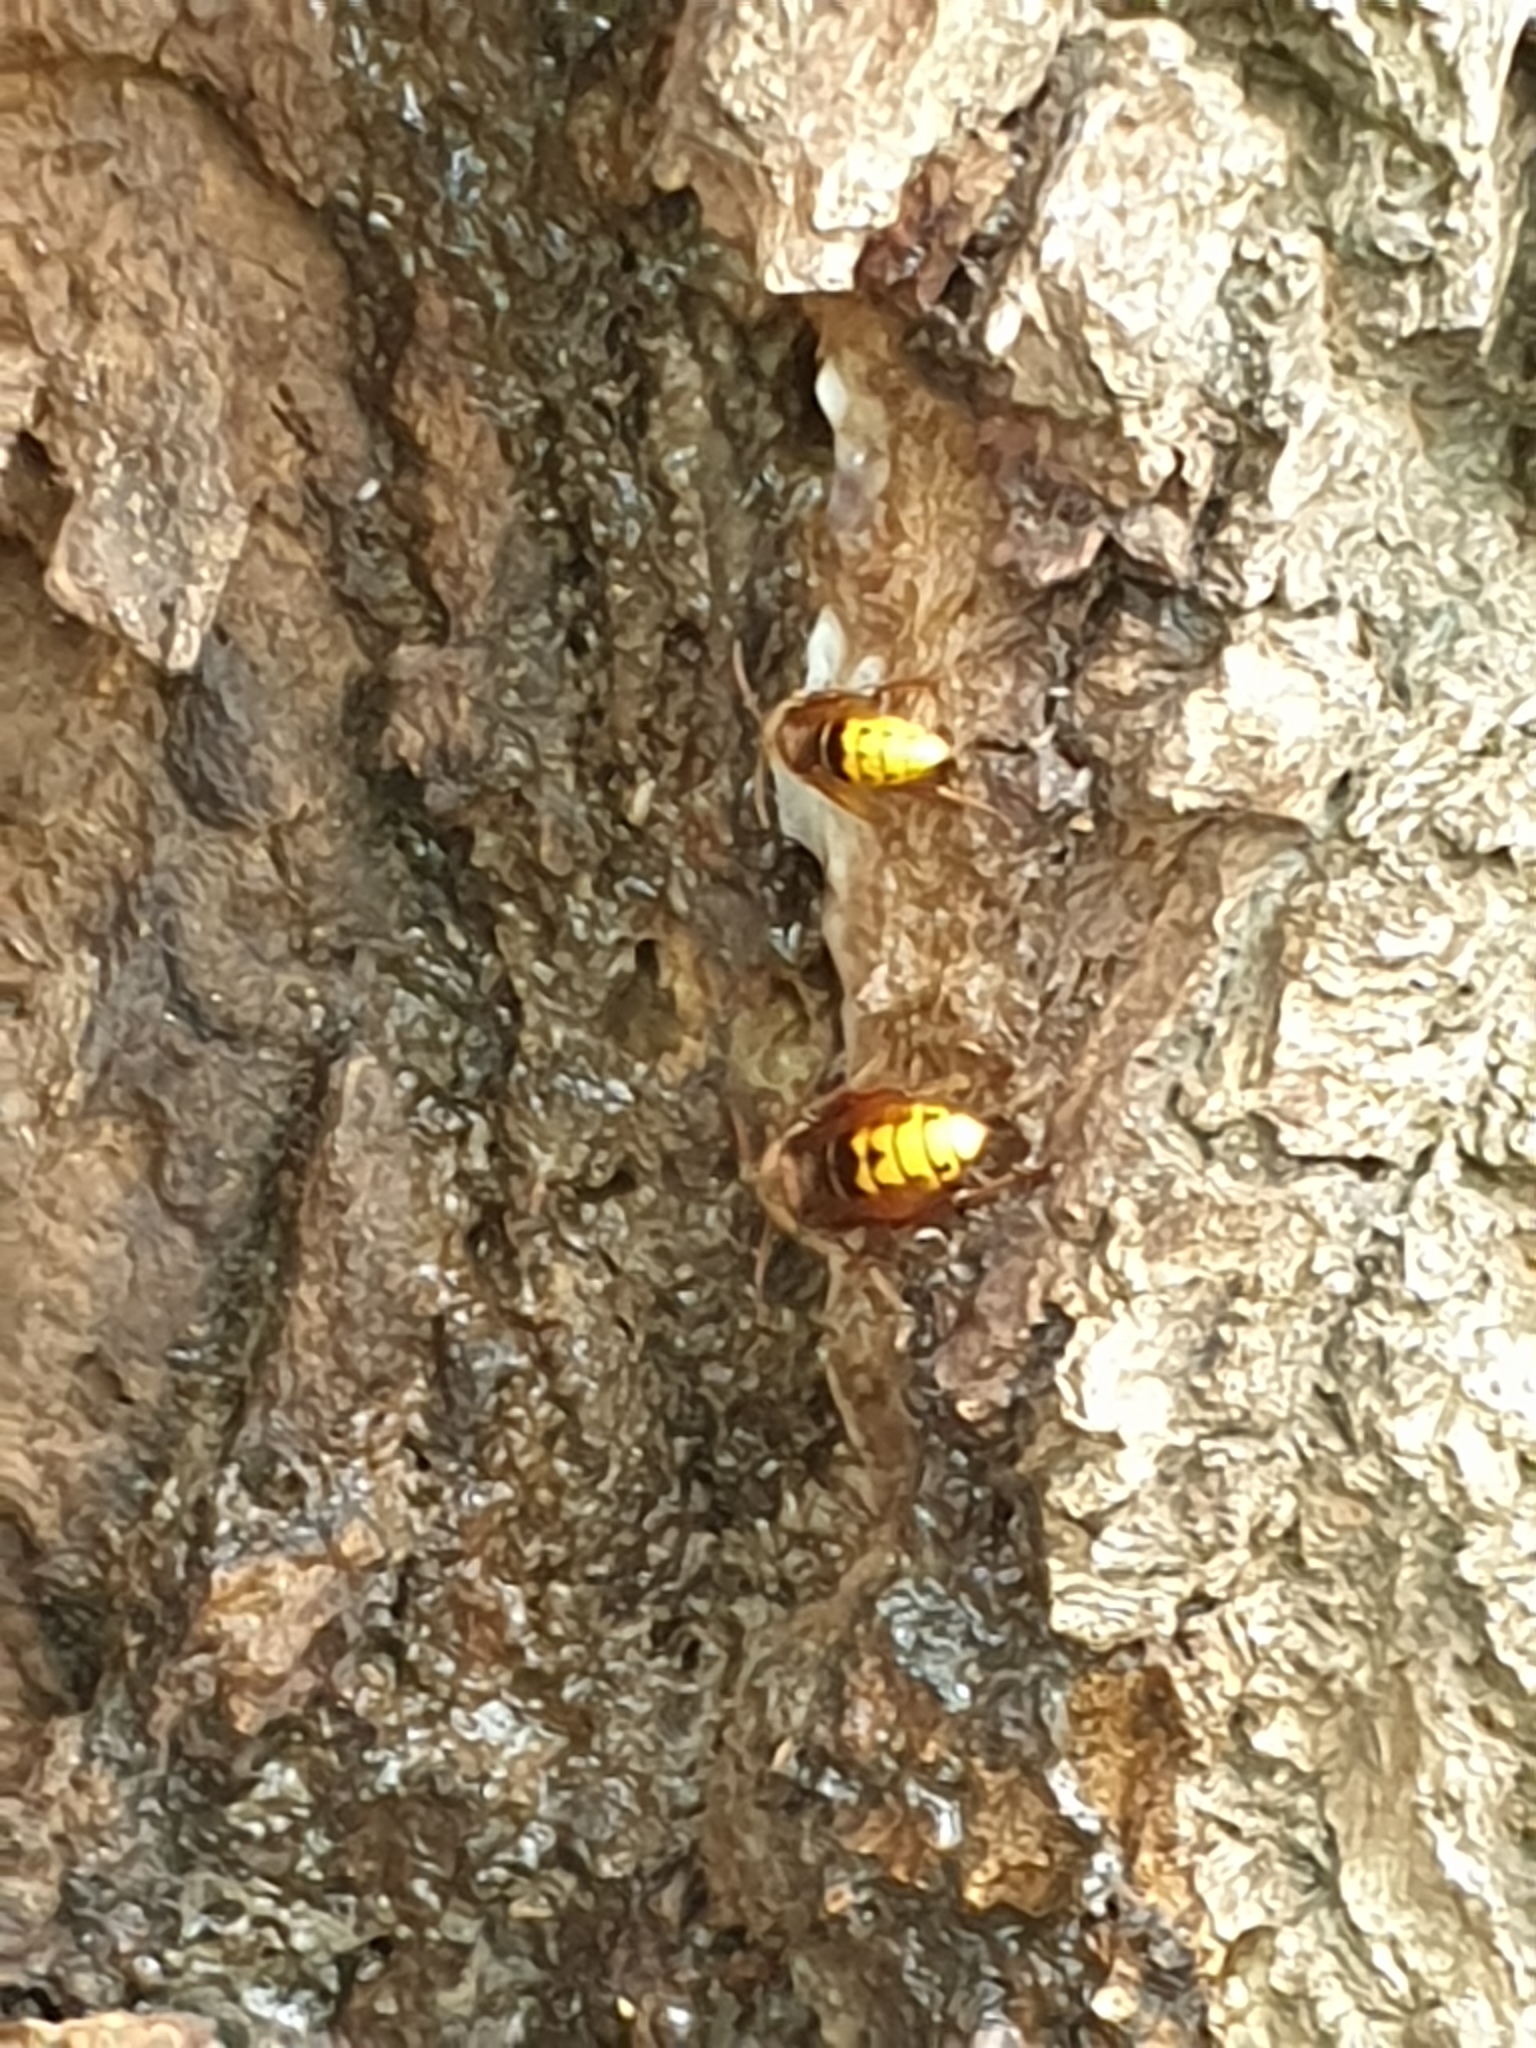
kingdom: Animalia
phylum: Arthropoda
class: Insecta
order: Hymenoptera
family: Vespidae
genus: Vespa
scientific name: Vespa crabro
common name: Hornet
